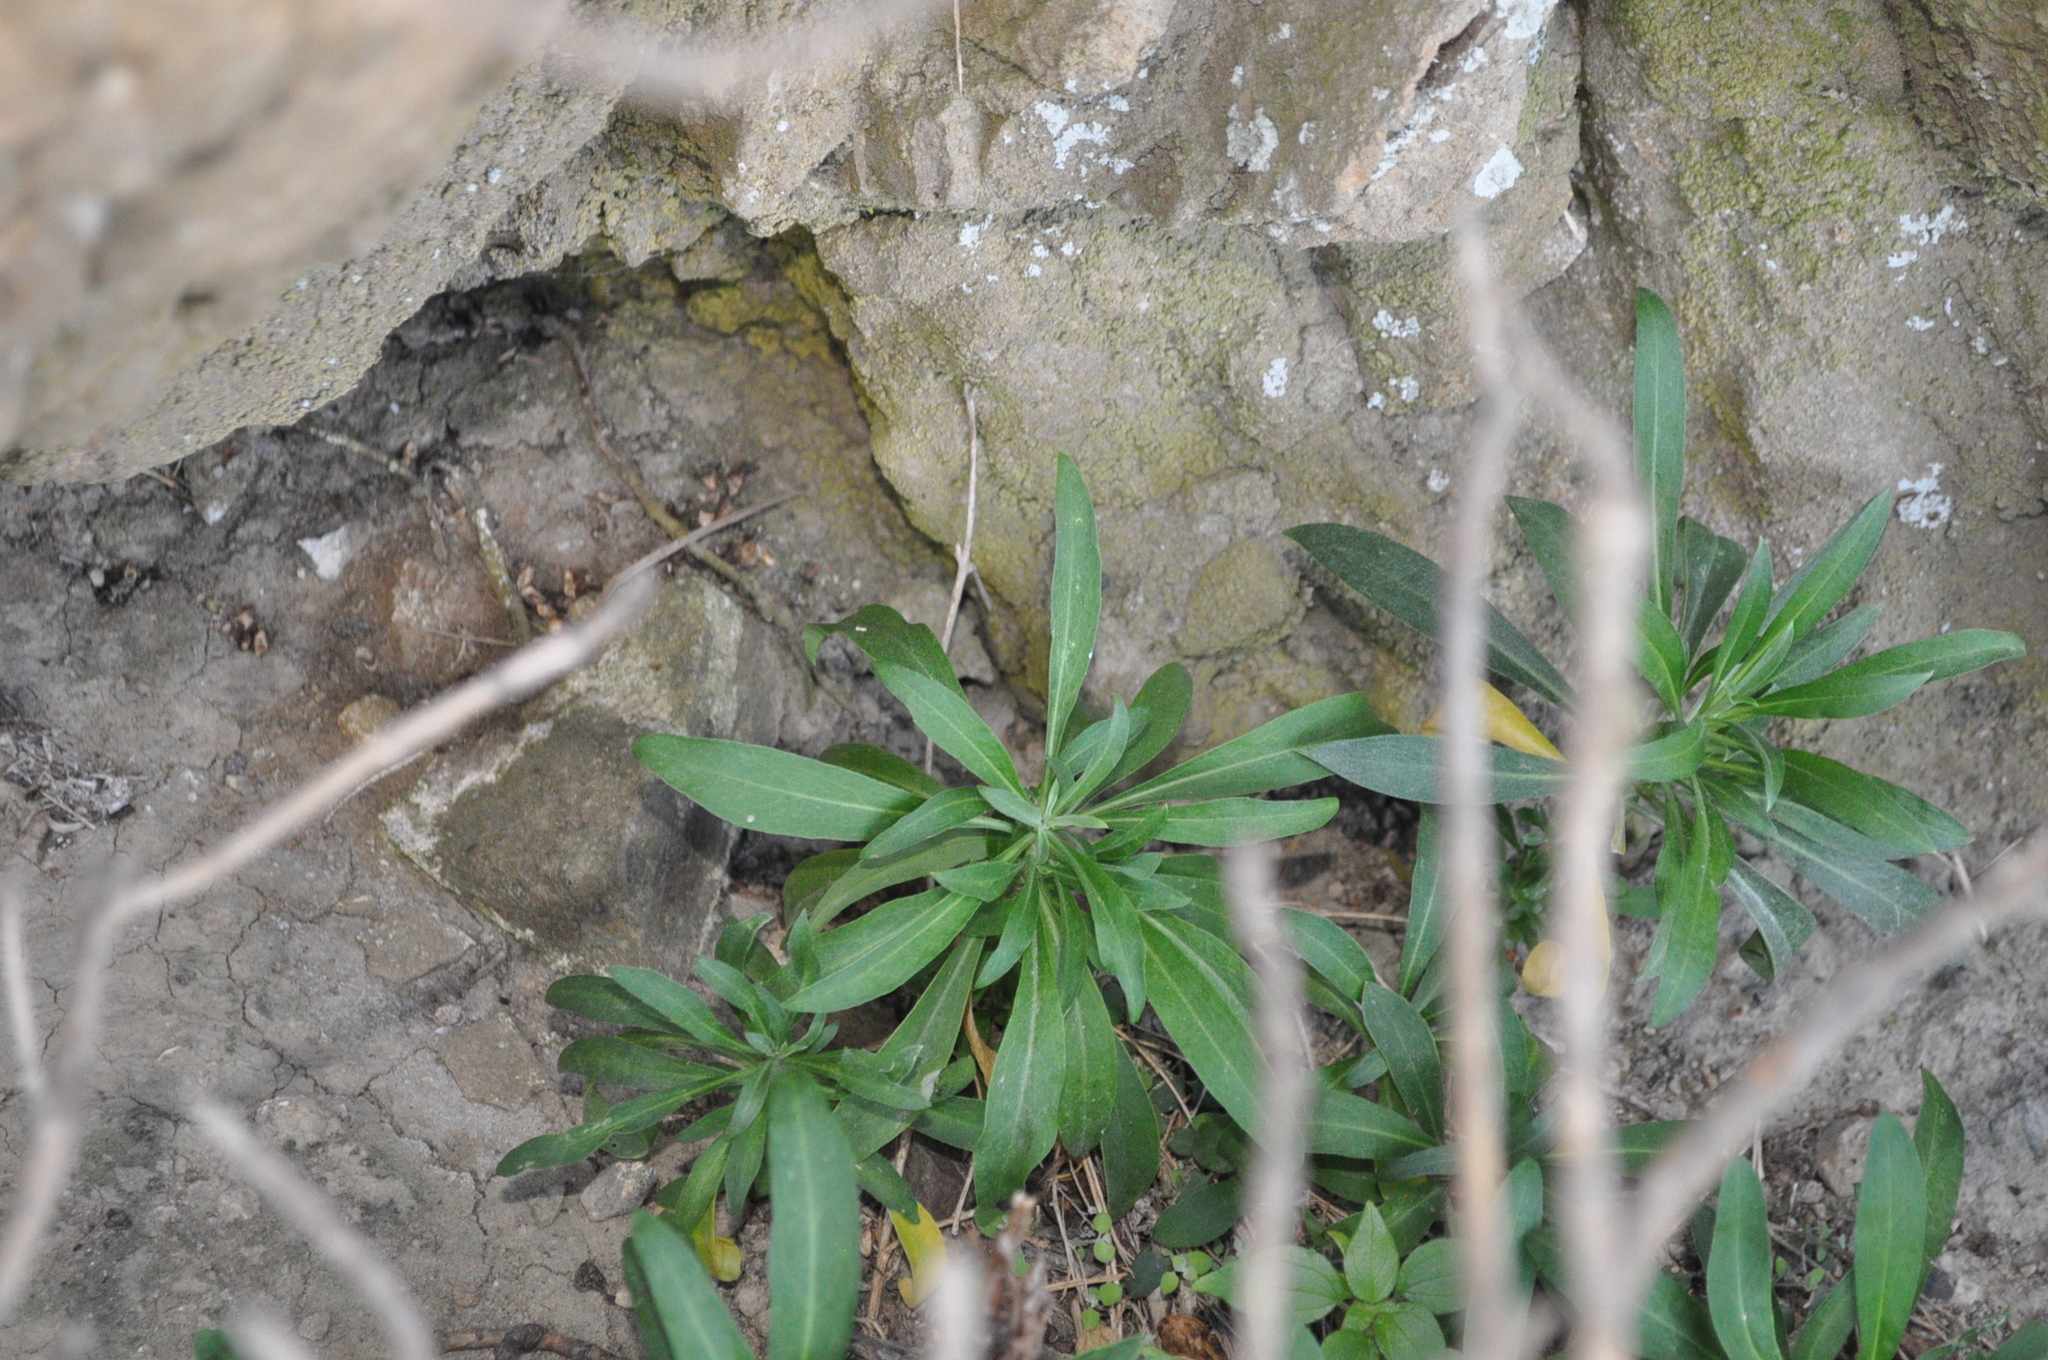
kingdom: Plantae
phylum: Tracheophyta
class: Magnoliopsida
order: Brassicales
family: Brassicaceae
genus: Erysimum
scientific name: Erysimum cheiri
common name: Wallflower
